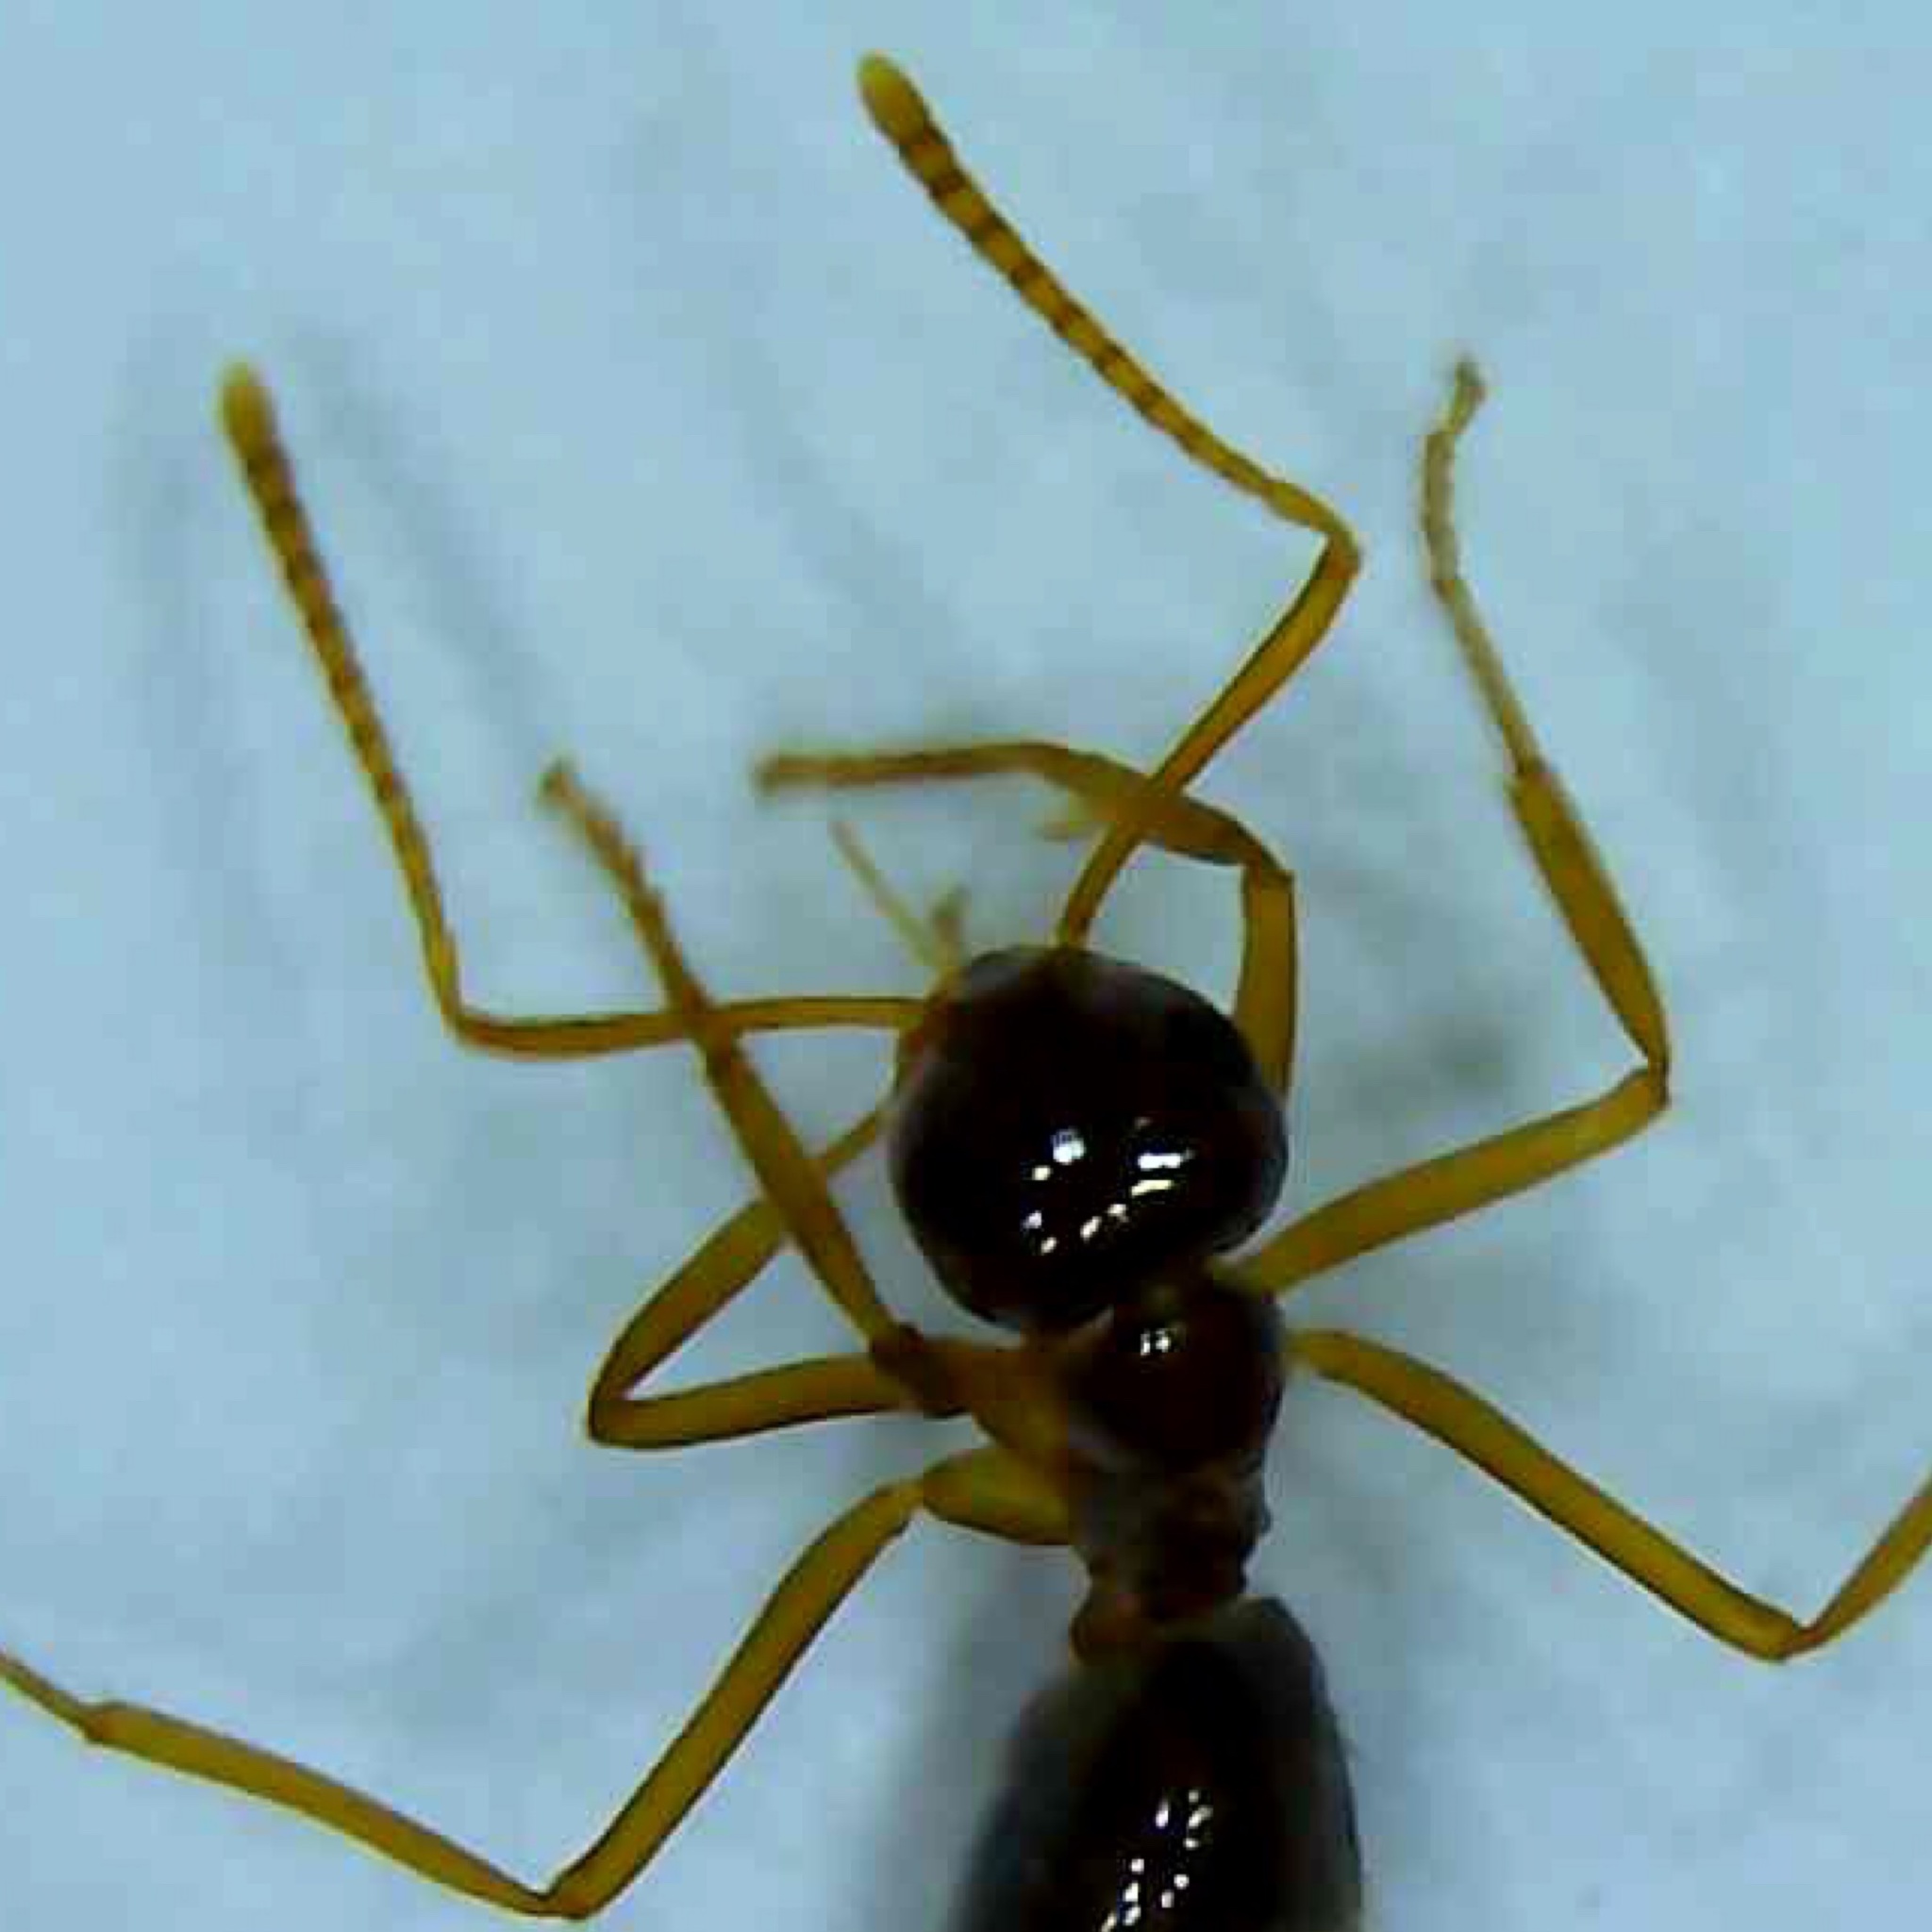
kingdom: Animalia
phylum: Arthropoda
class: Insecta
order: Hymenoptera
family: Formicidae
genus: Prenolepis
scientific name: Prenolepis imparis
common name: Small honey ant
